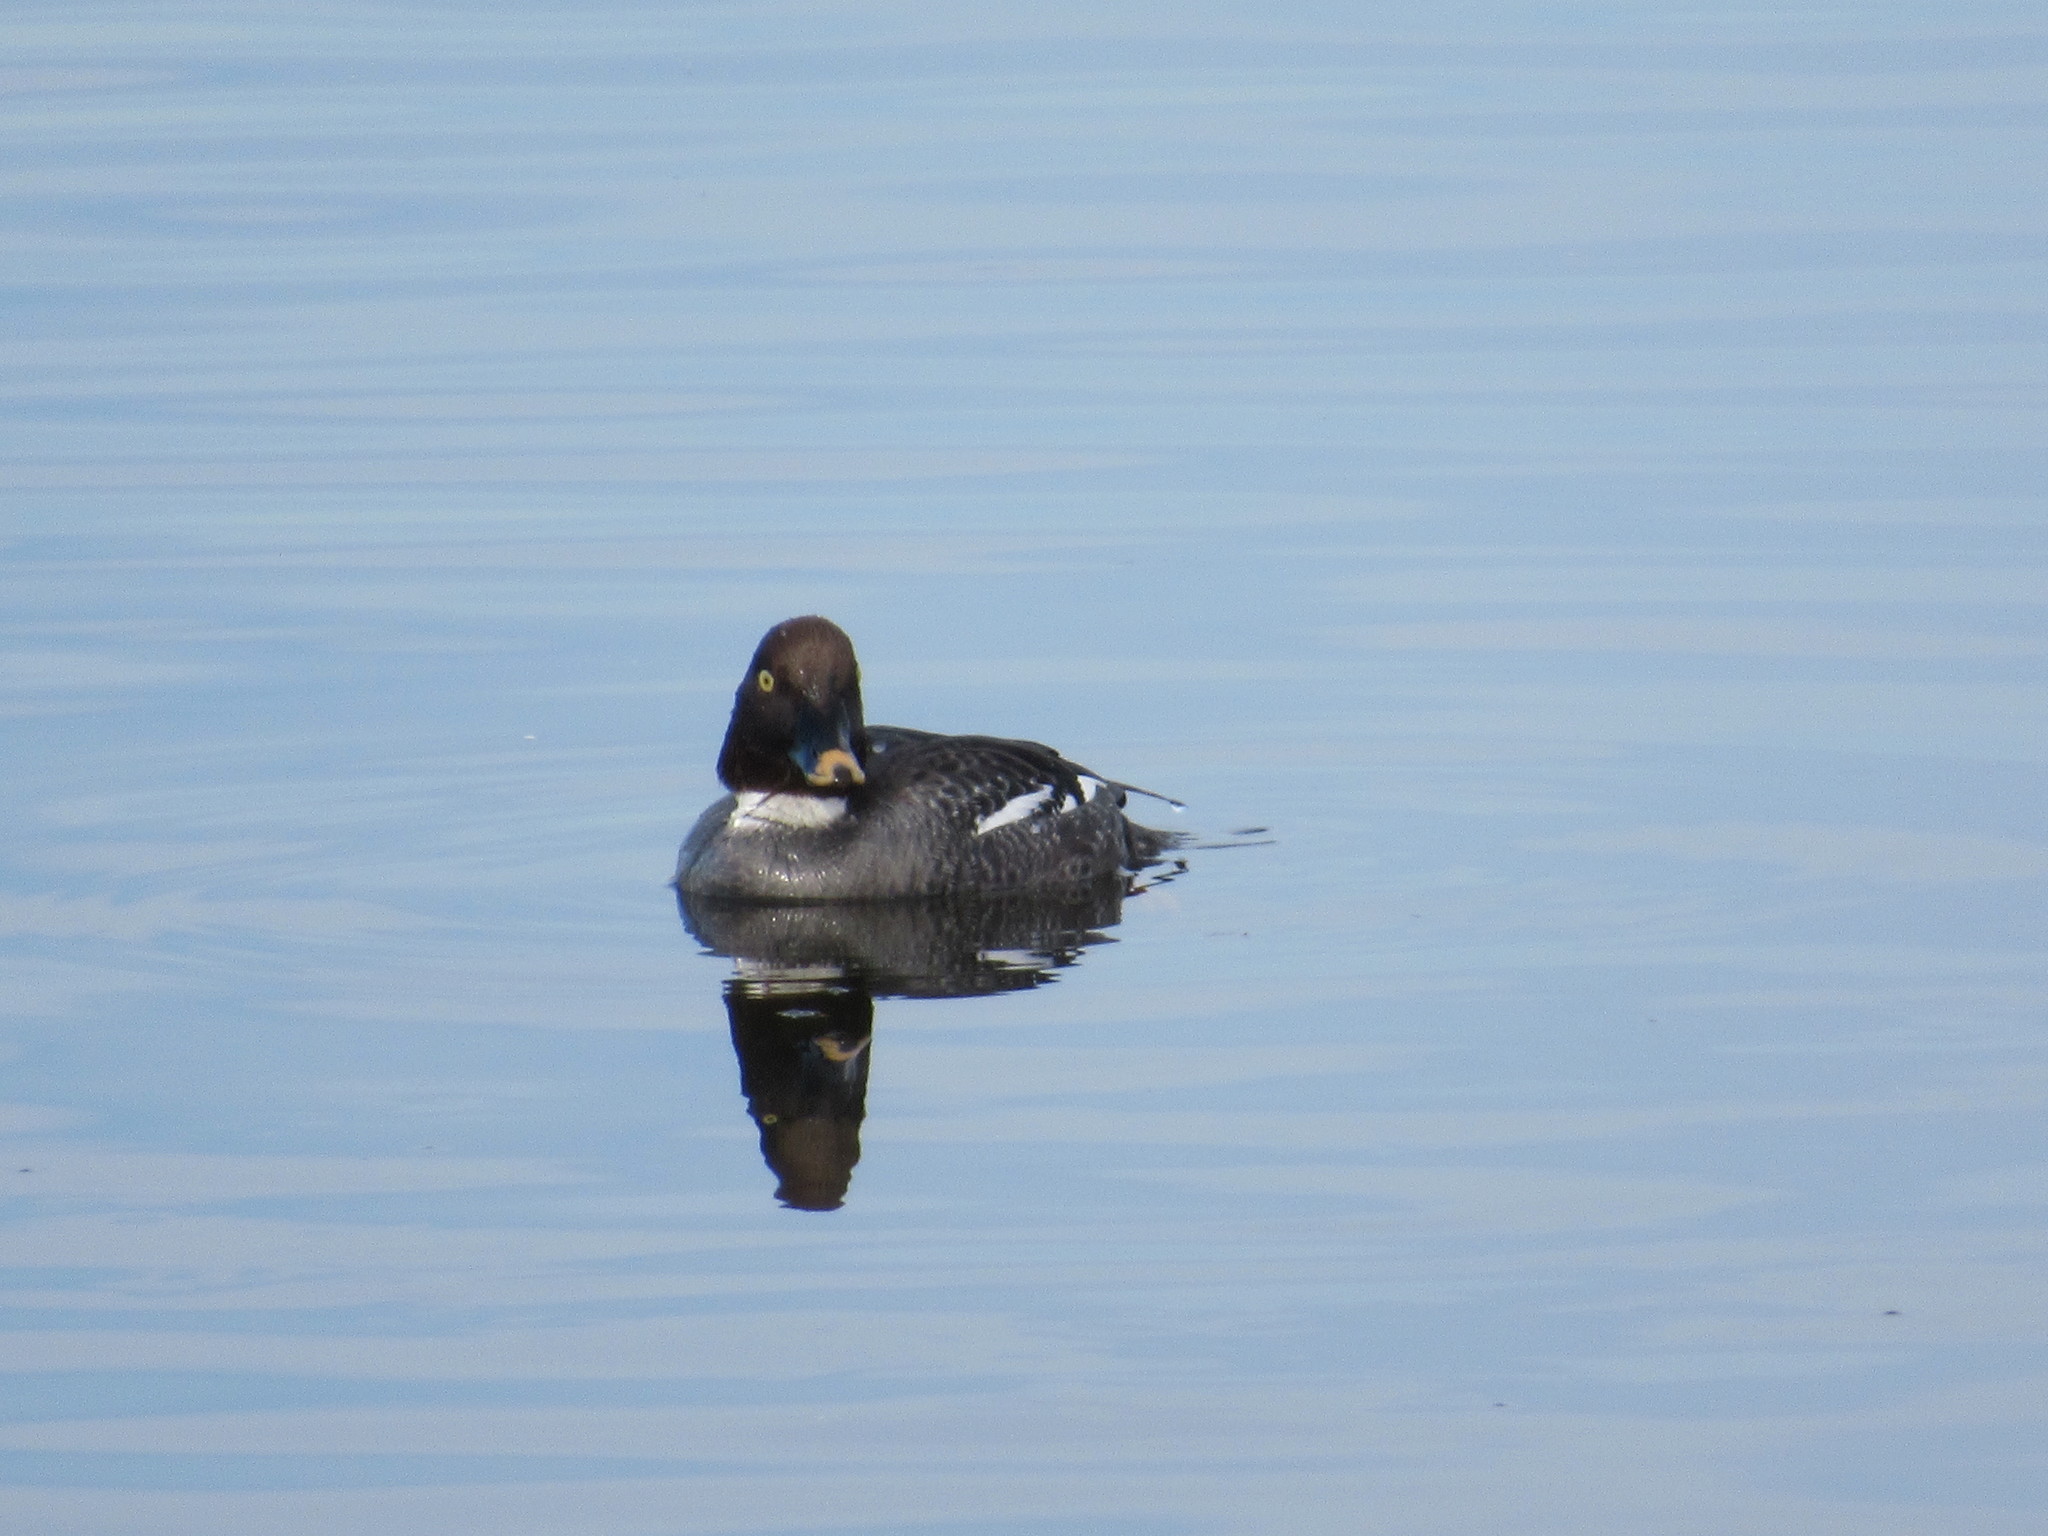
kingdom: Animalia
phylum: Chordata
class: Aves
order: Anseriformes
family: Anatidae
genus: Bucephala
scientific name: Bucephala clangula
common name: Common goldeneye
